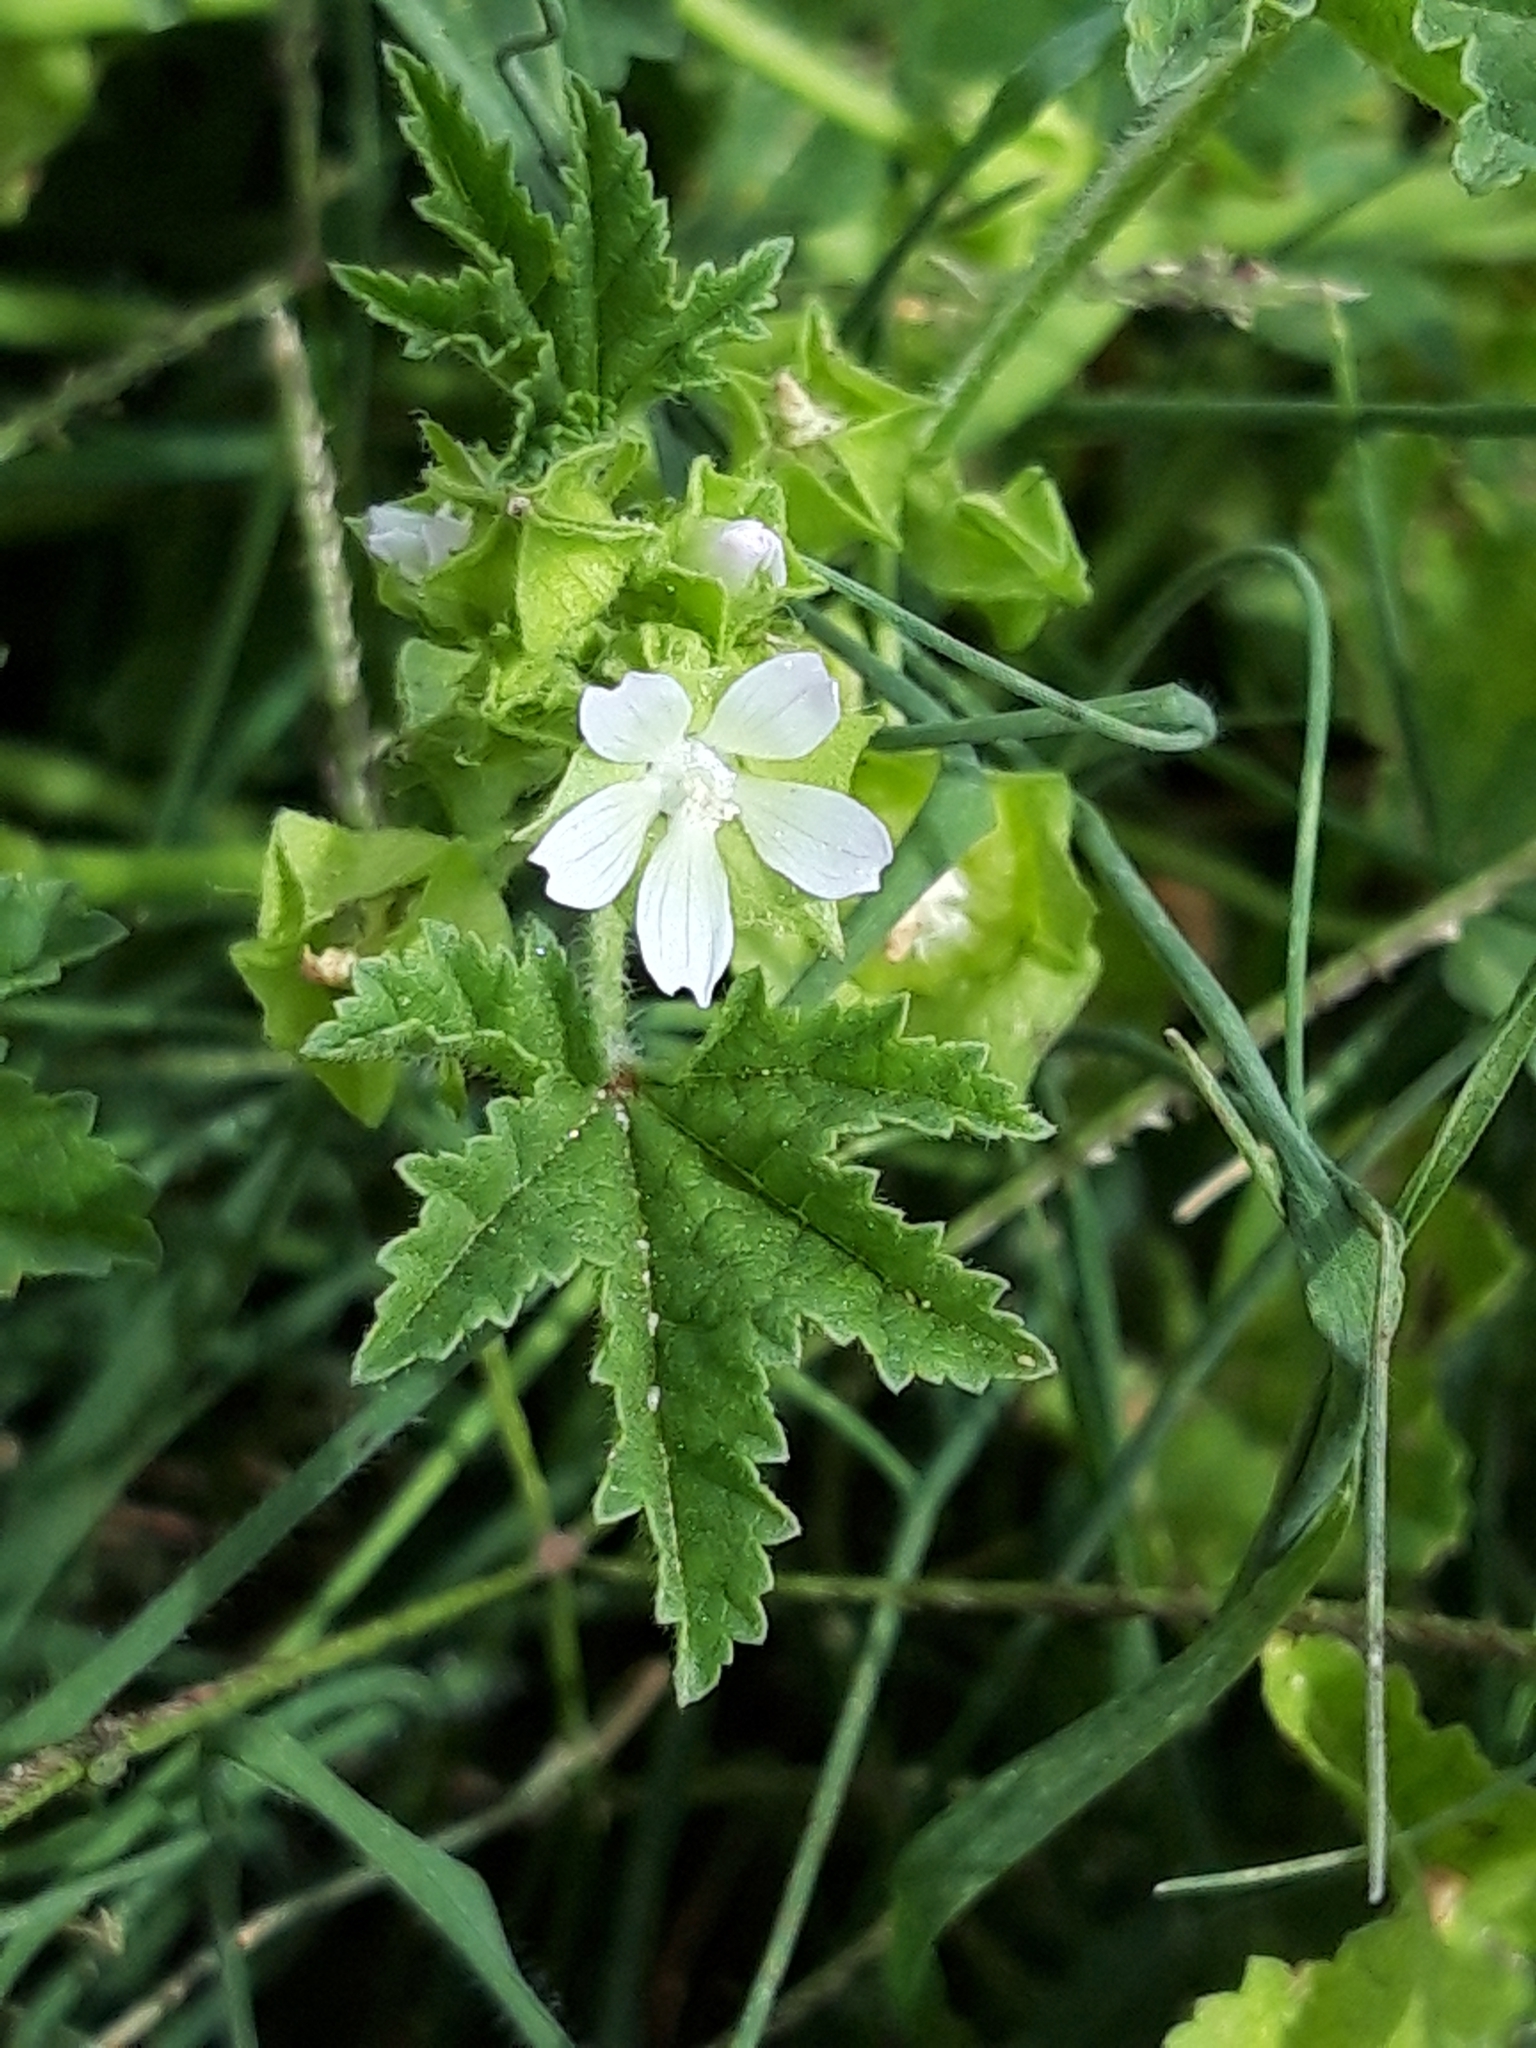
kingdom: Plantae
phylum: Tracheophyta
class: Magnoliopsida
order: Malvales
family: Malvaceae
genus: Malva
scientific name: Malva parviflora
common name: Least mallow
